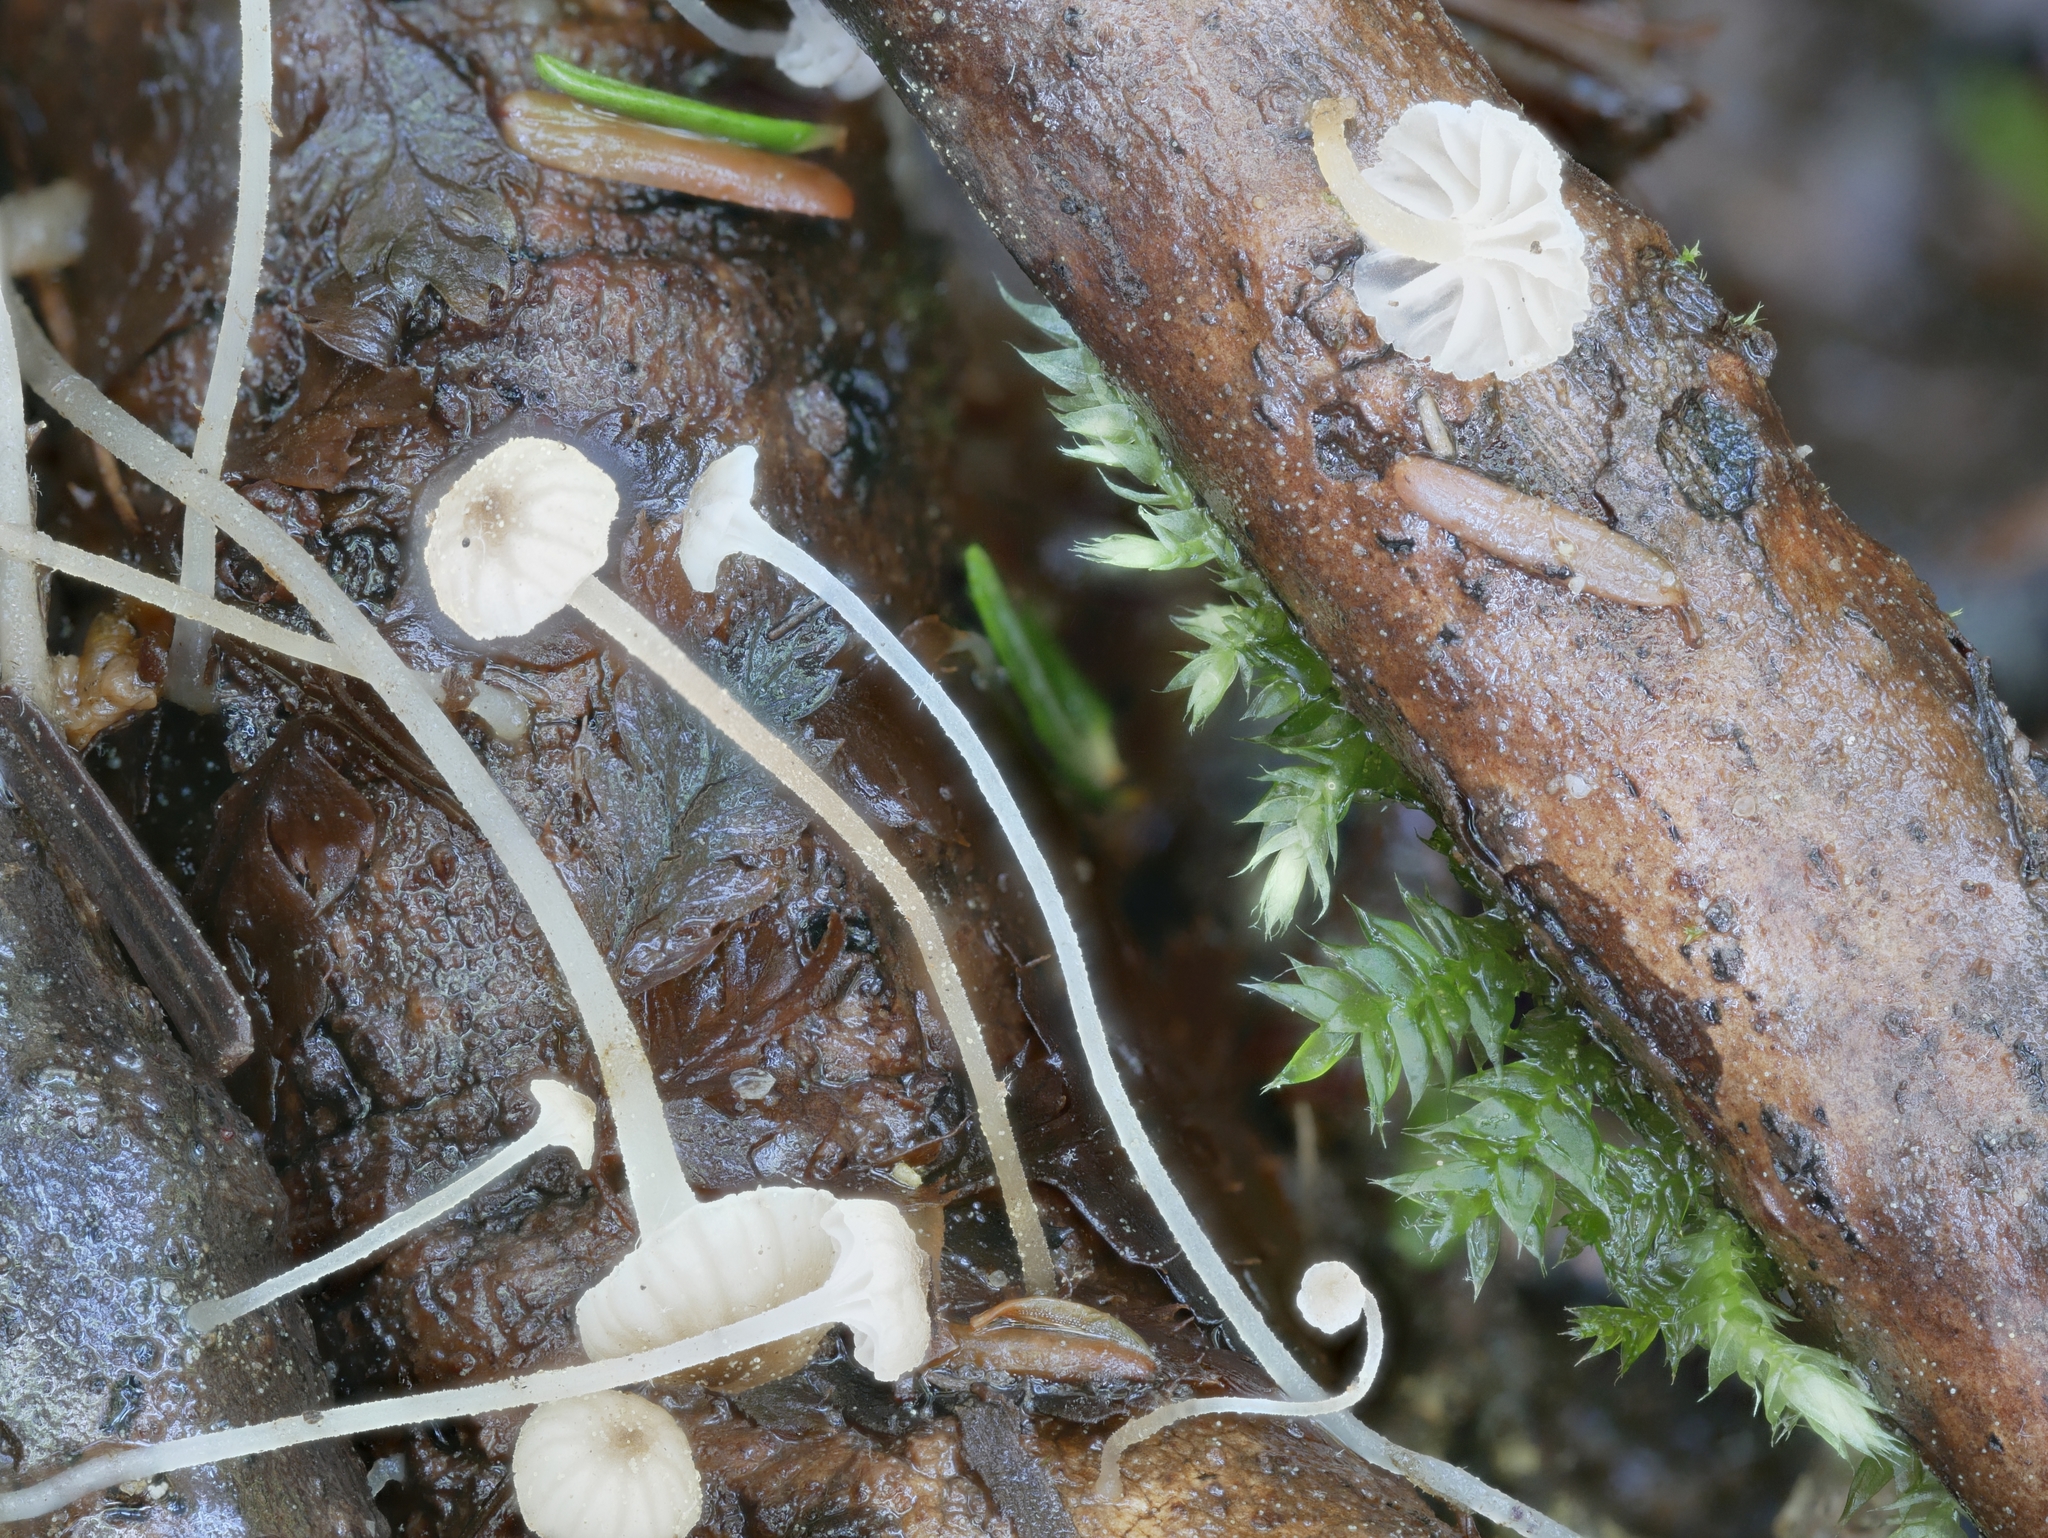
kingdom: Fungi
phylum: Basidiomycota
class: Agaricomycetes
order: Agaricales
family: Porotheleaceae
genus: Phloeomana
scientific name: Phloeomana speirea
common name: Bark bonnet
